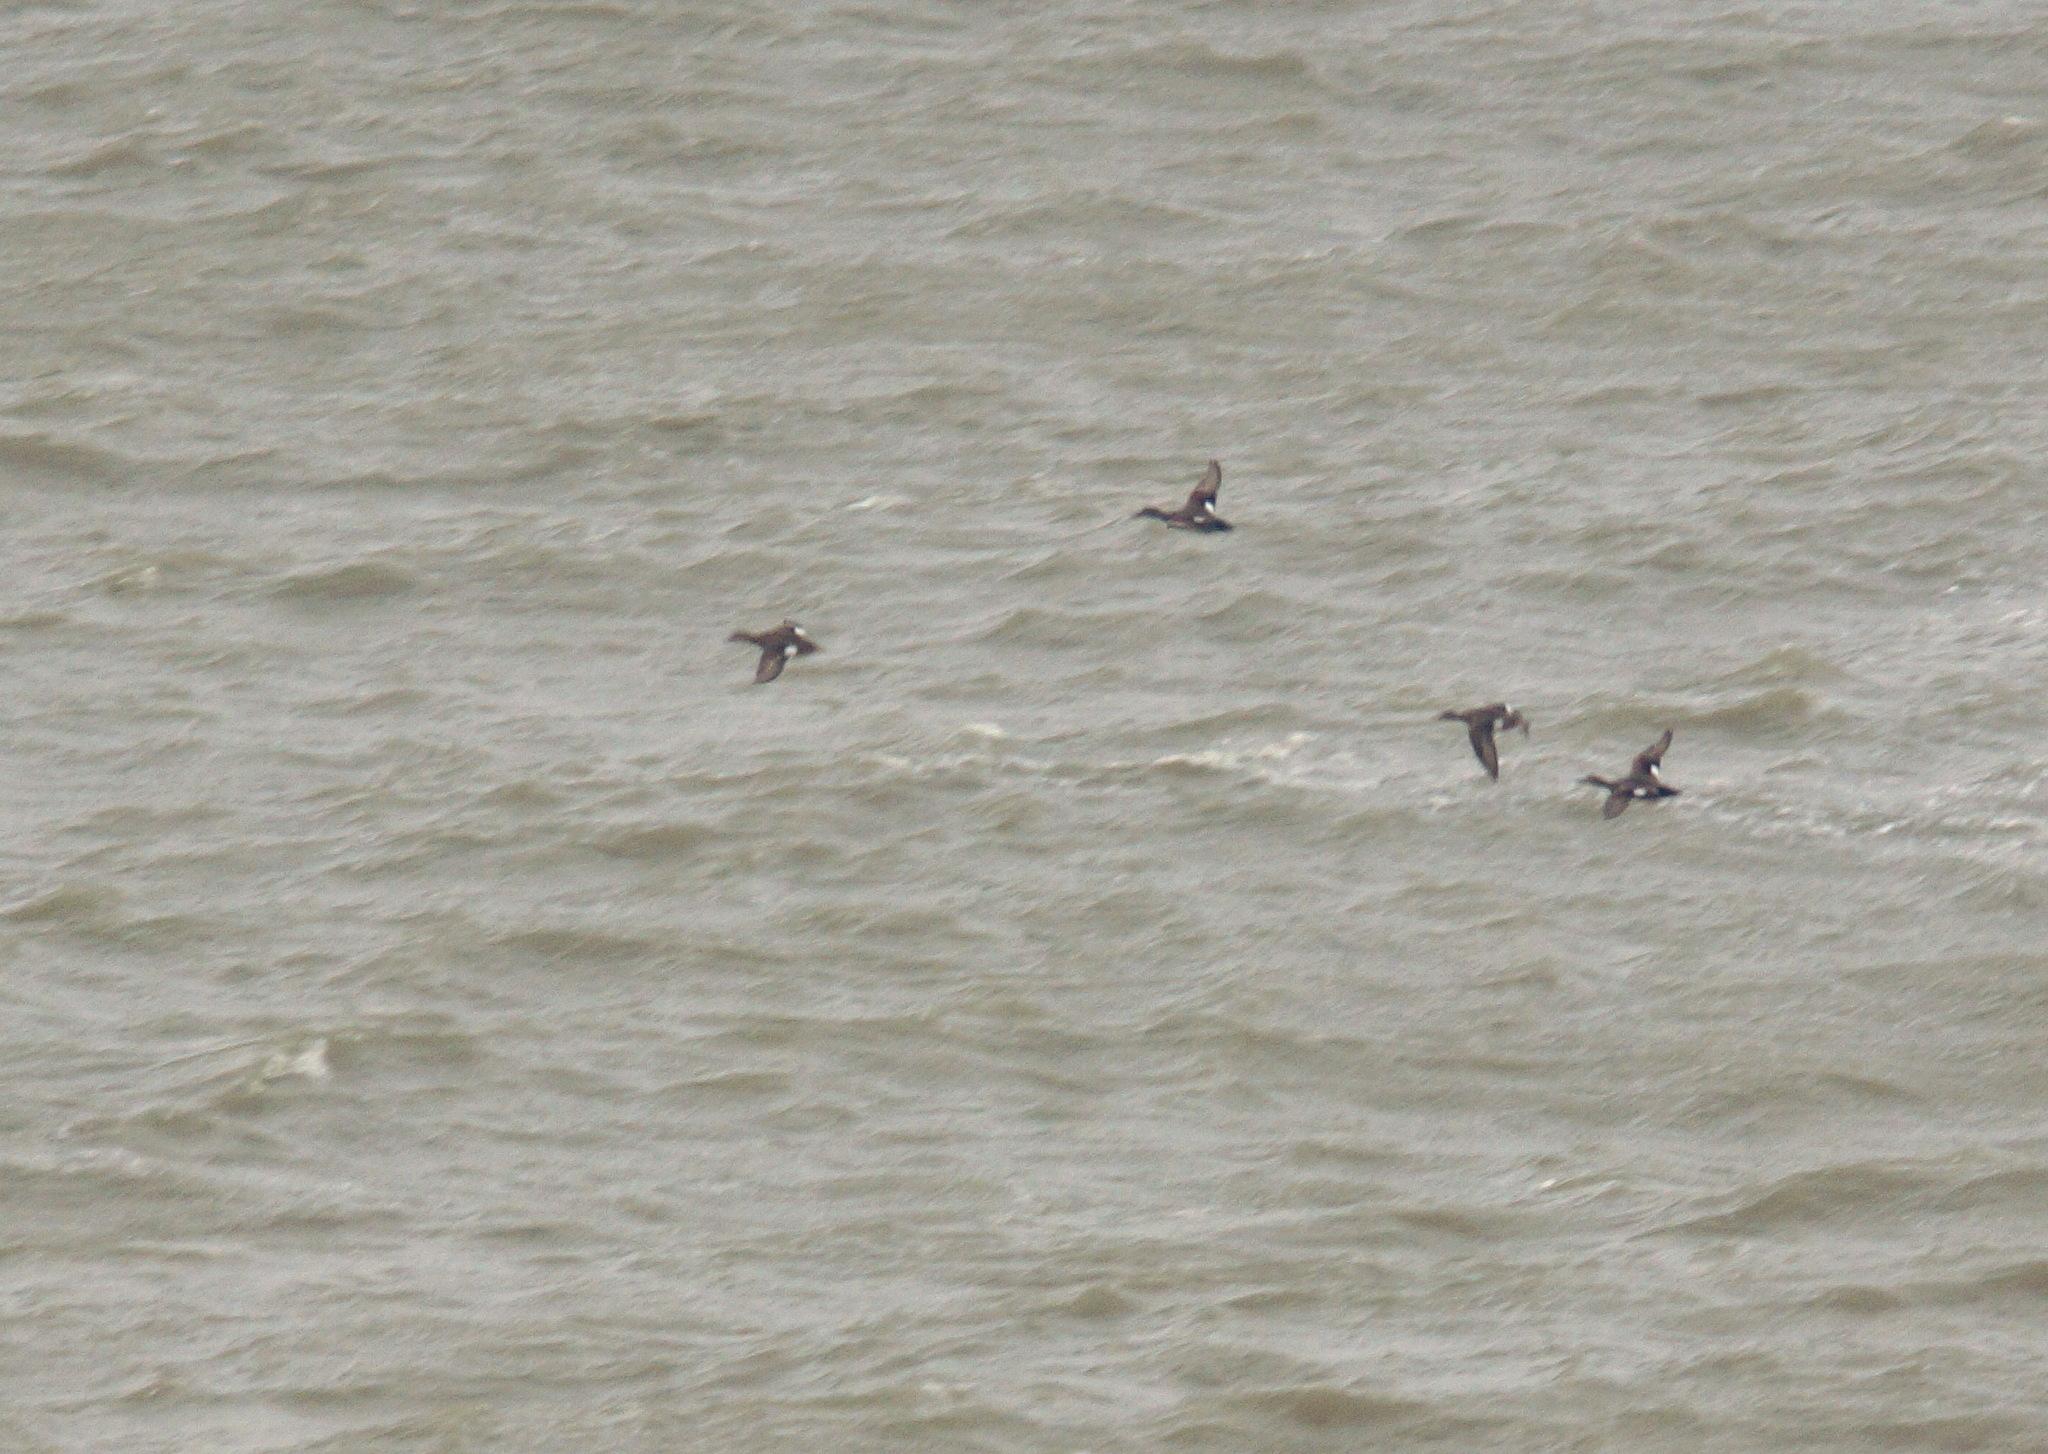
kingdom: Animalia
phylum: Chordata
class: Aves
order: Anseriformes
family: Anatidae
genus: Mareca
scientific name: Mareca strepera
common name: Gadwall
